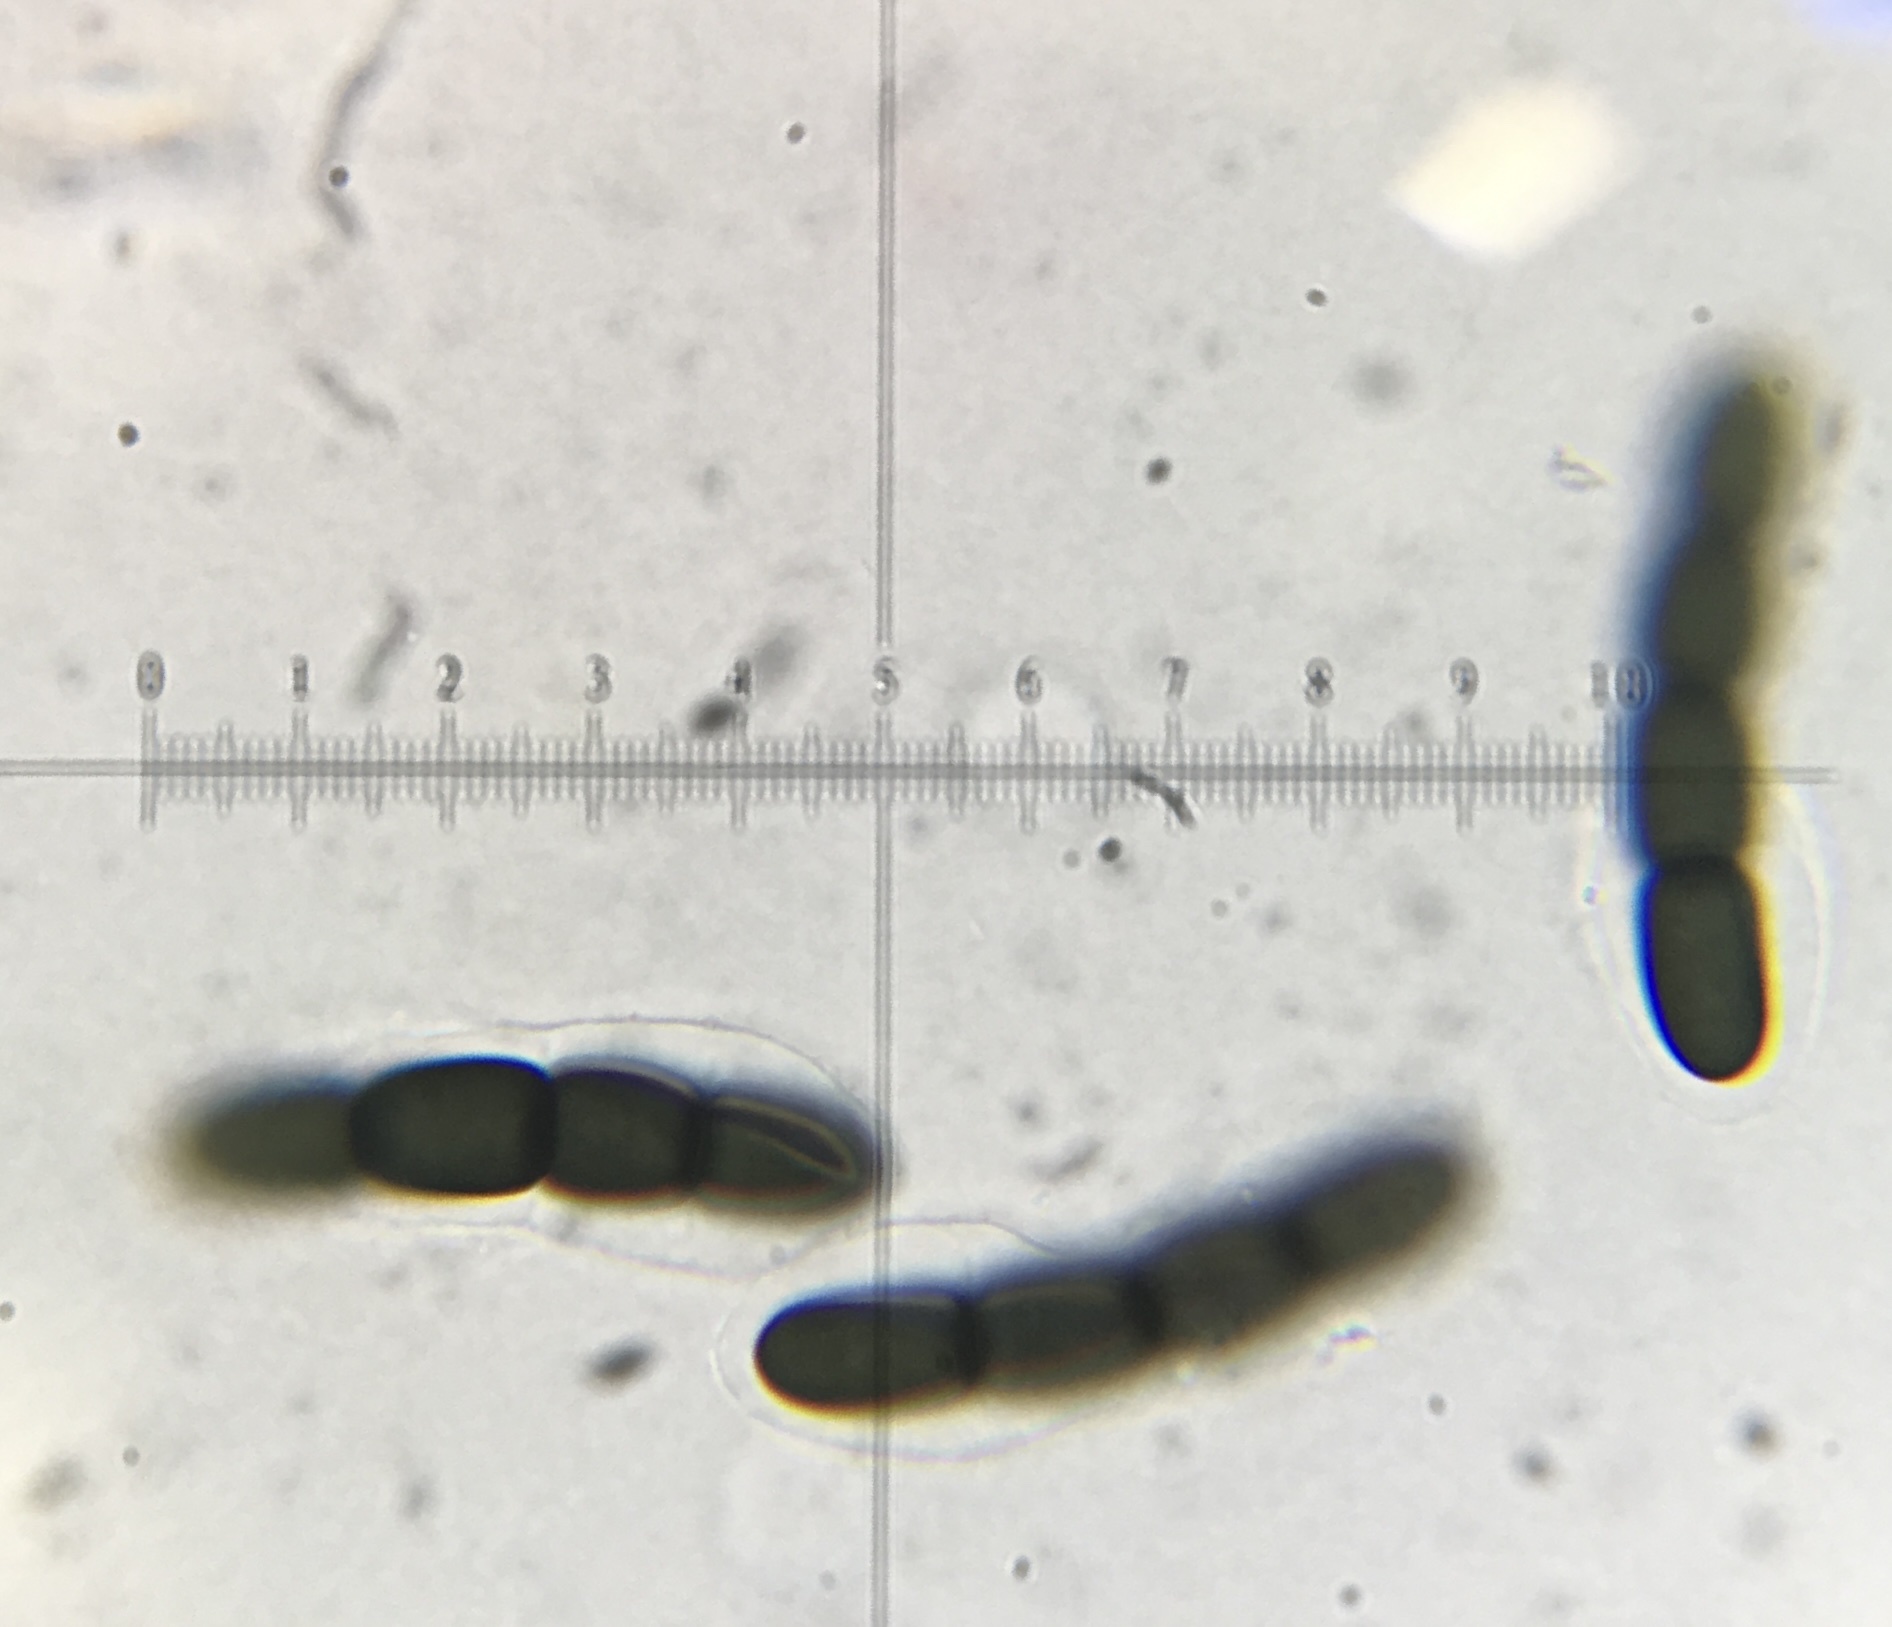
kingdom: Fungi
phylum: Ascomycota
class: Dothideomycetes
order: Pleosporales
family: Sporormiaceae
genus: Sporormiella
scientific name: Sporormiella capybarae
